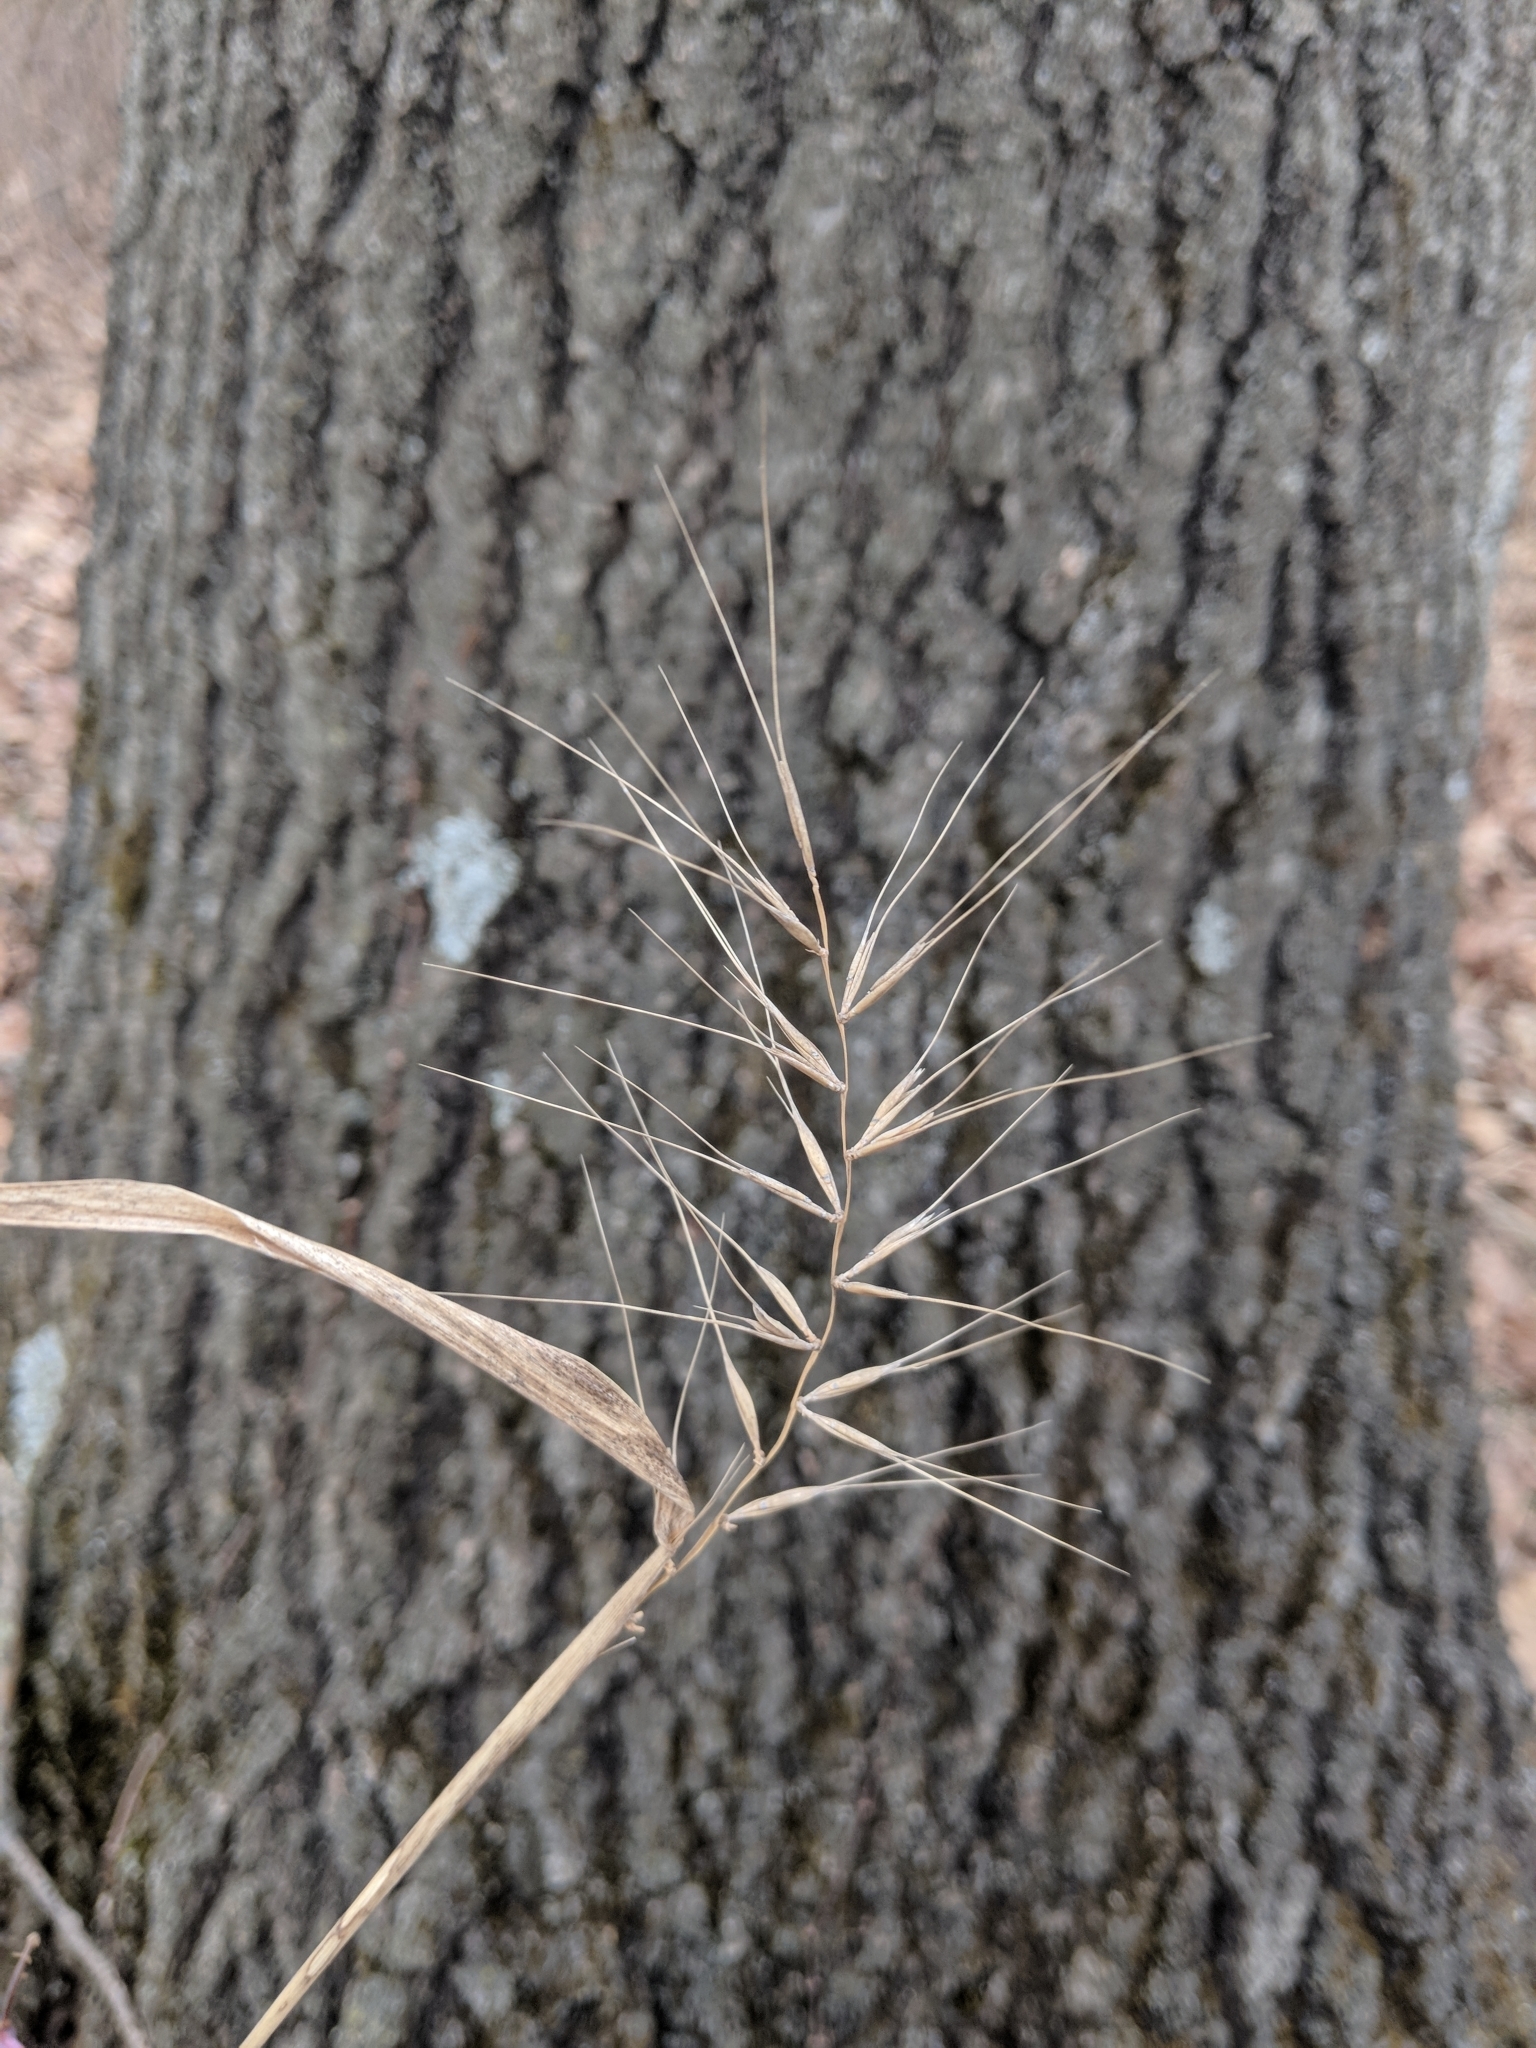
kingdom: Plantae
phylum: Tracheophyta
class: Liliopsida
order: Poales
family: Poaceae
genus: Elymus
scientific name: Elymus hystrix
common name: Bottlebrush grass
